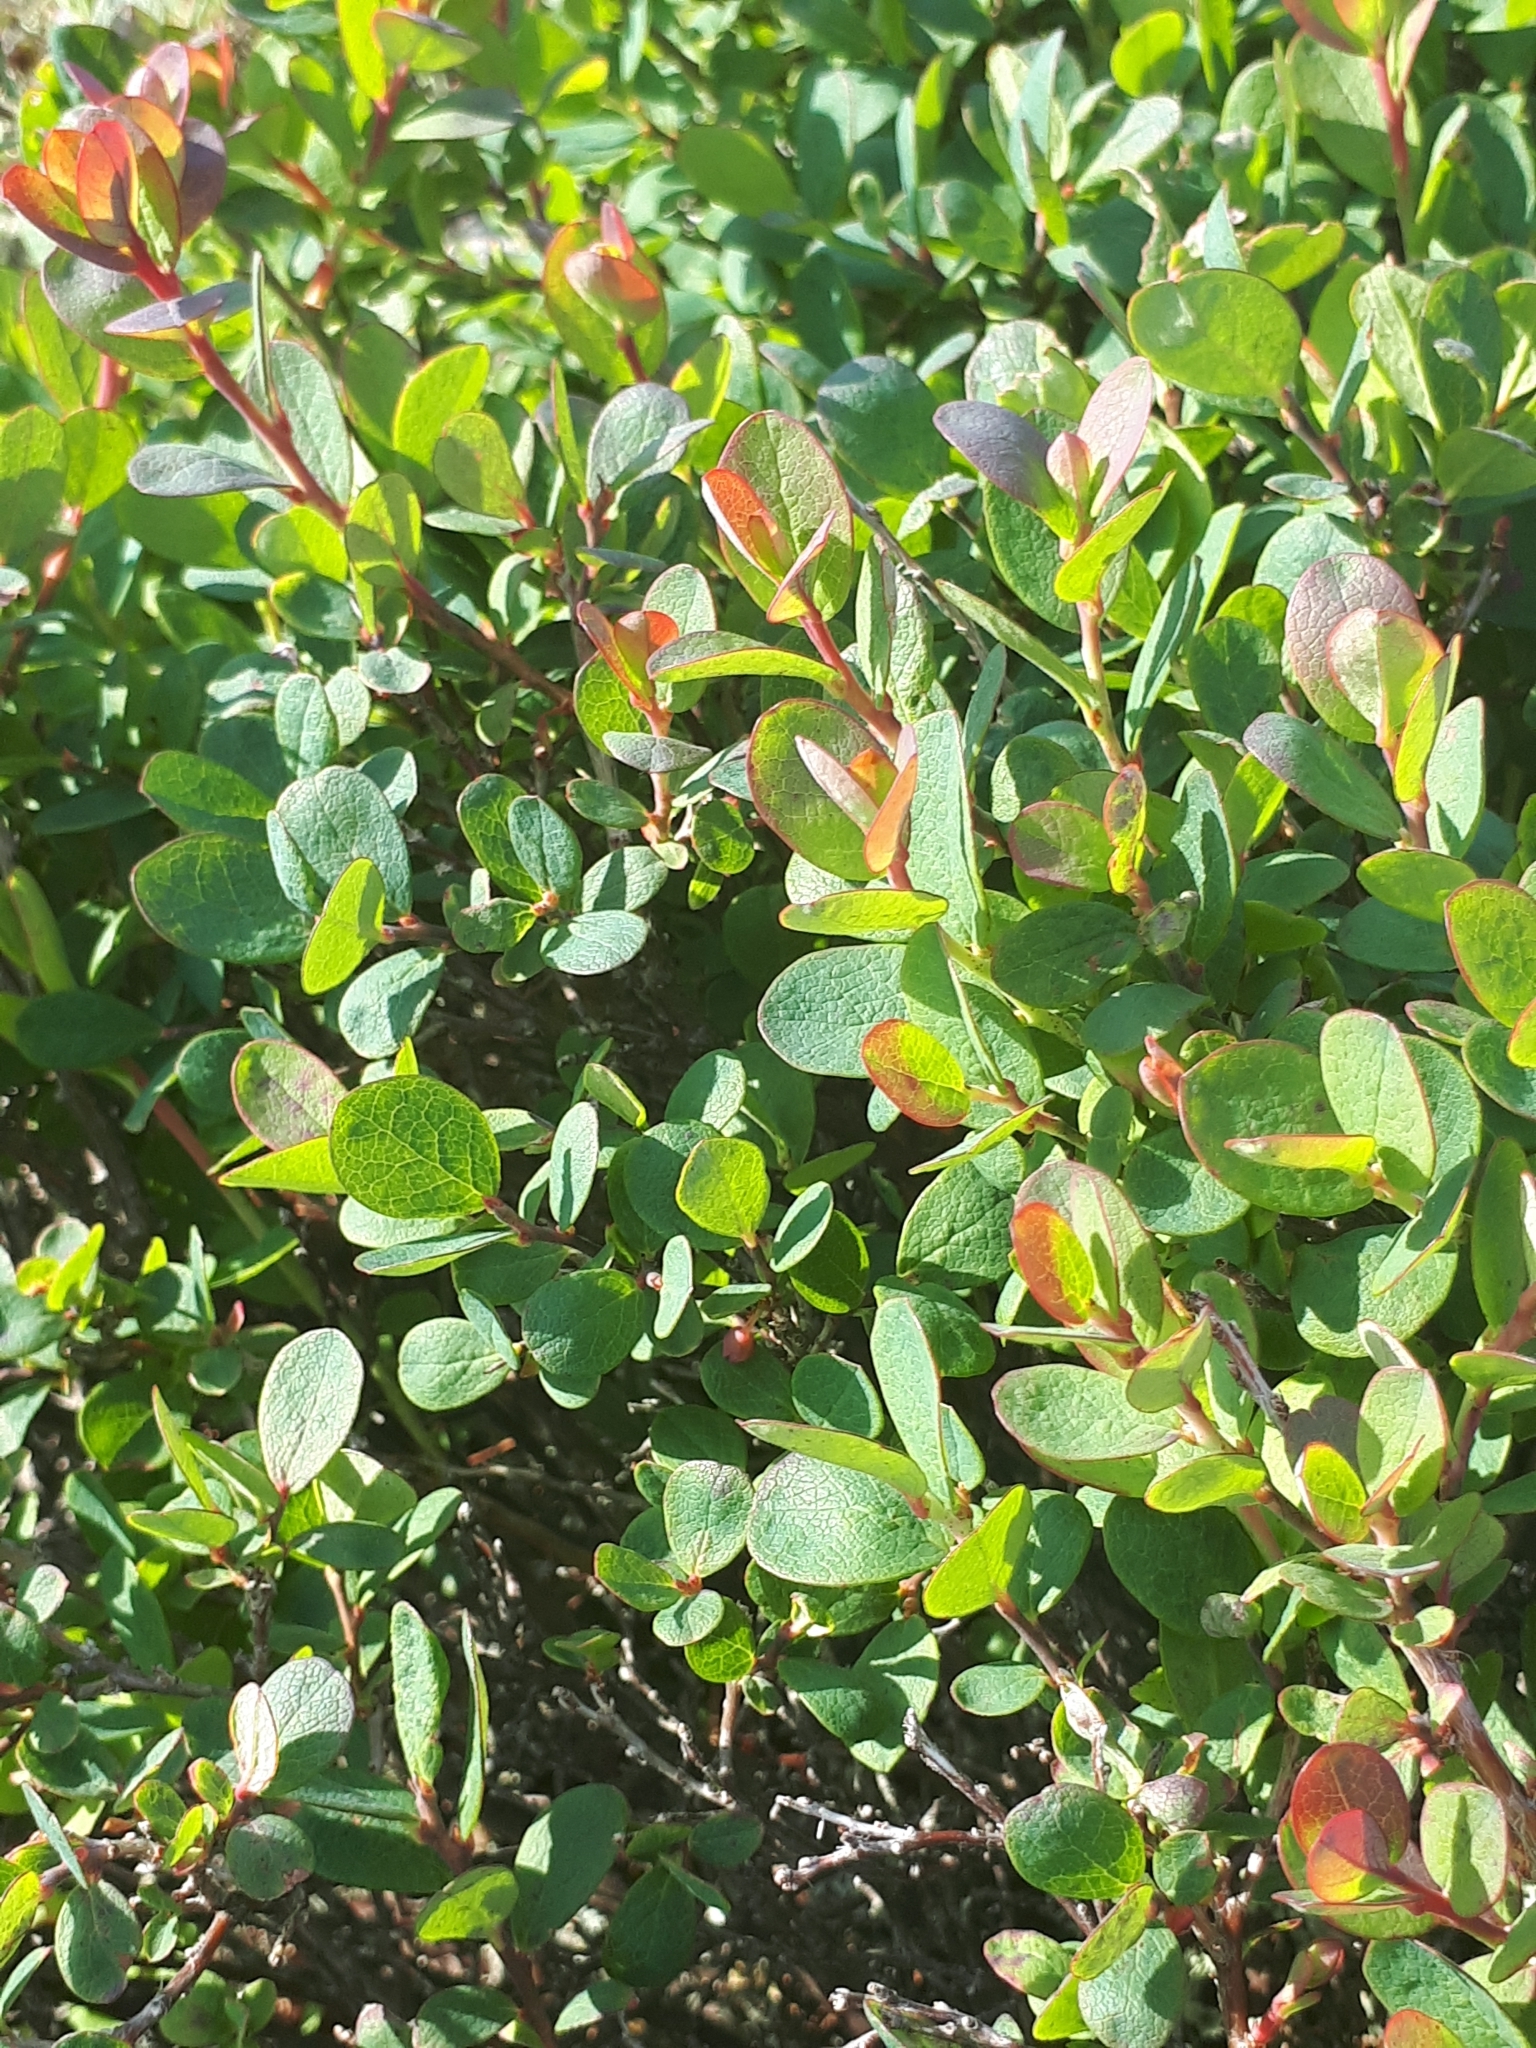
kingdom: Plantae
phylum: Tracheophyta
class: Magnoliopsida
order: Ericales
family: Ericaceae
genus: Vaccinium
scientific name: Vaccinium uliginosum
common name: Bog bilberry
